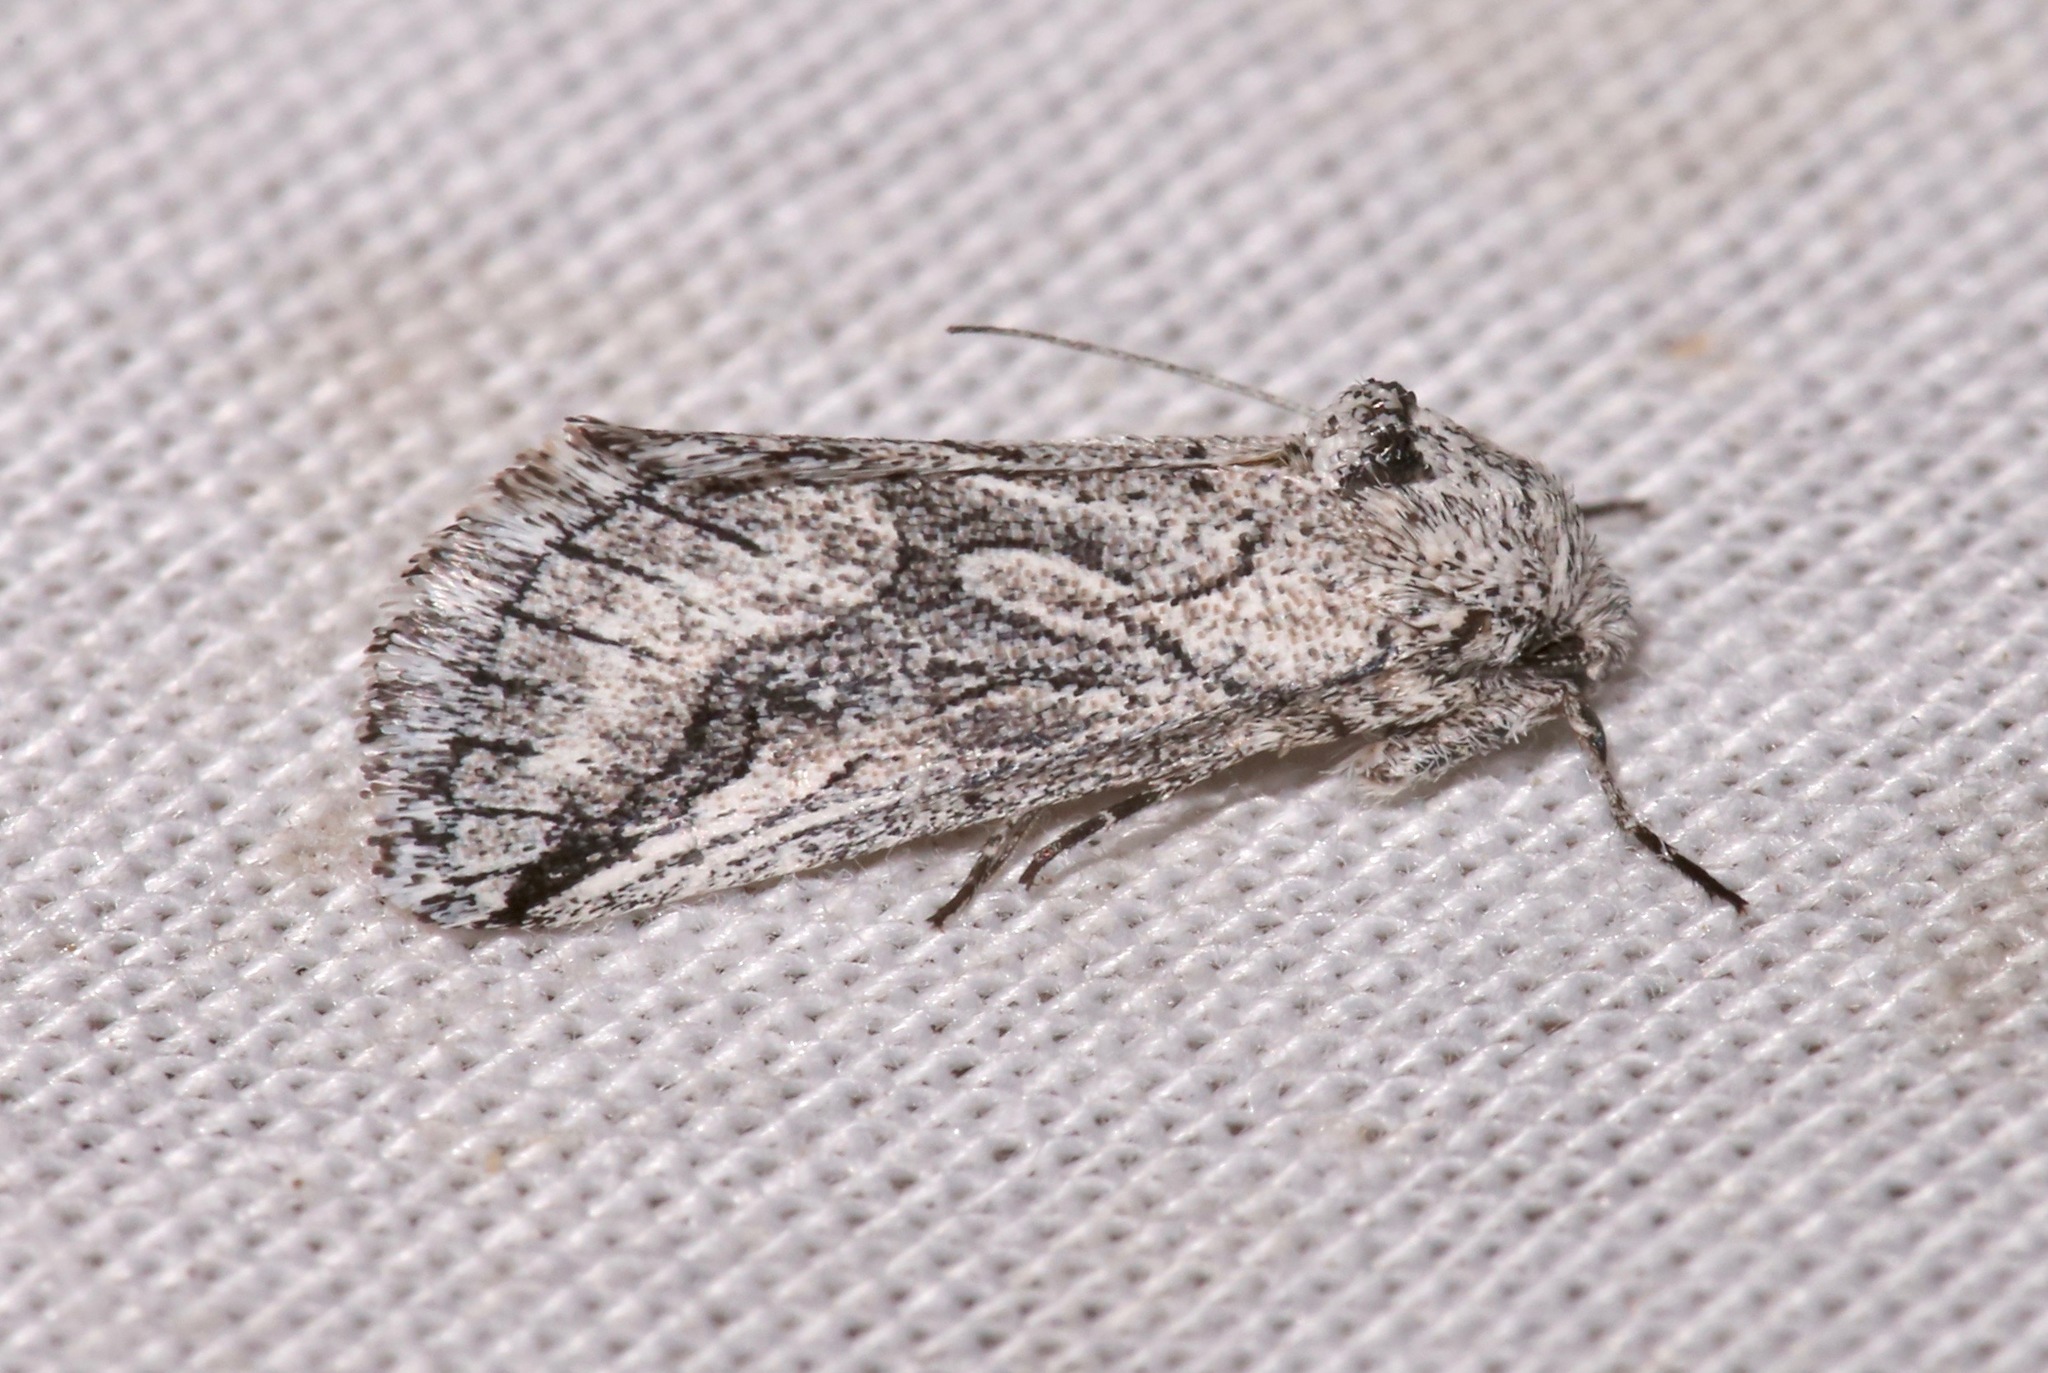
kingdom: Animalia
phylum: Arthropoda
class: Insecta
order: Lepidoptera
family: Noctuidae
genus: Oxycnemis
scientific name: Oxycnemis fusimacula
